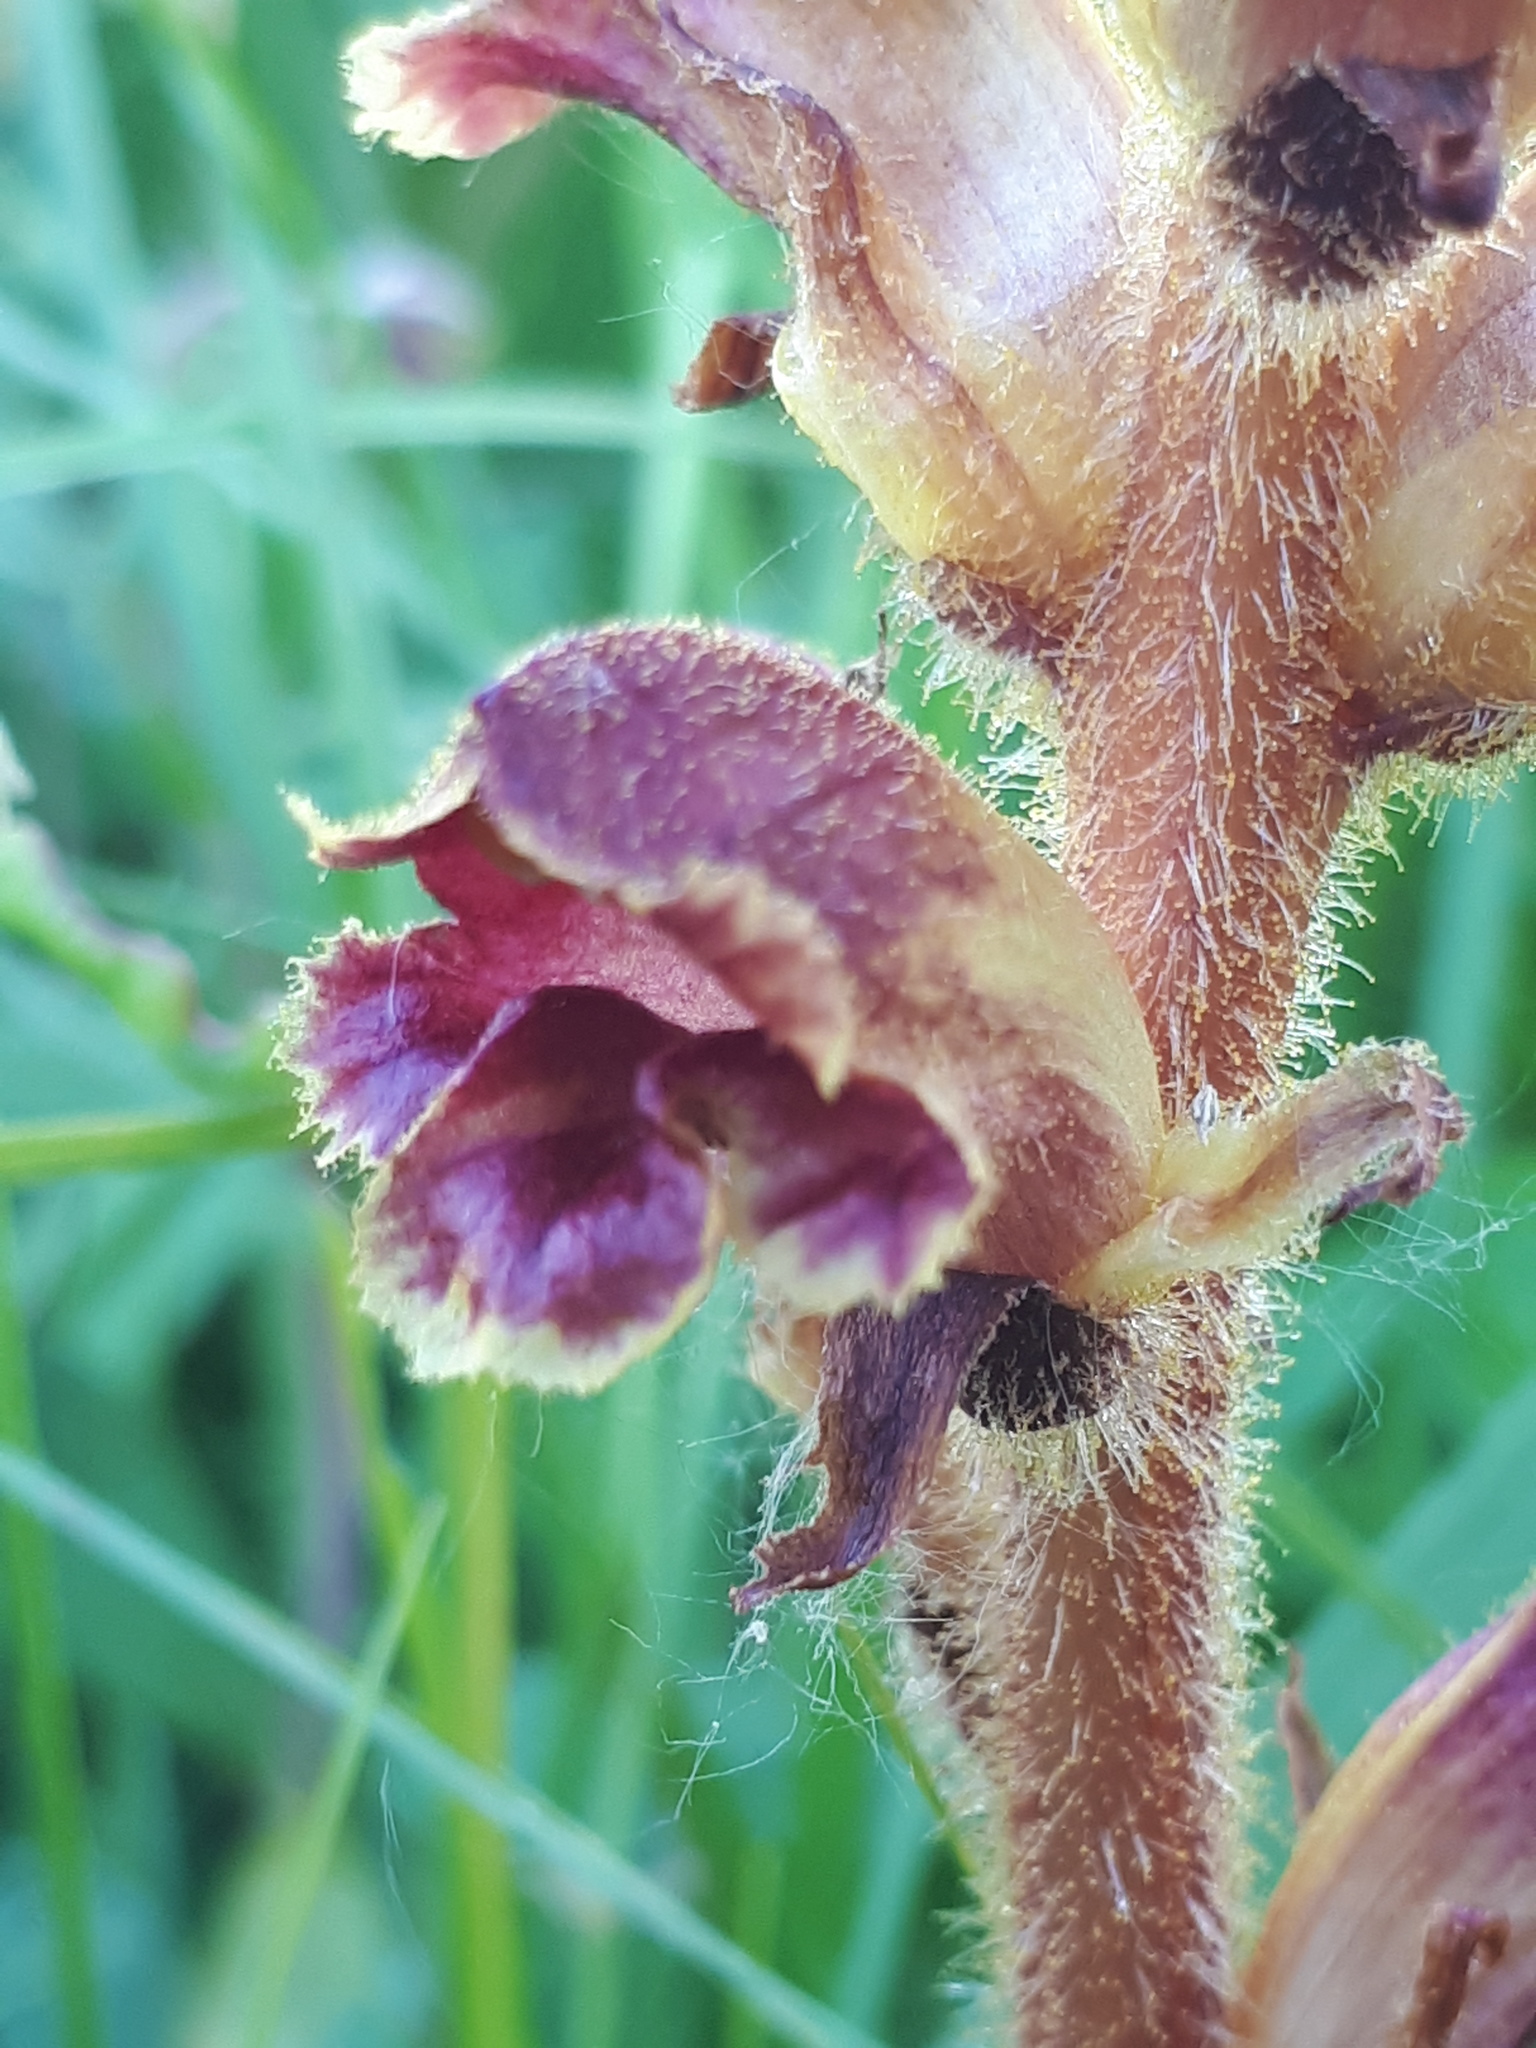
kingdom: Plantae
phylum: Tracheophyta
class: Magnoliopsida
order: Lamiales
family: Orobanchaceae
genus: Orobanche
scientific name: Orobanche gracilis
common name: Slender broomrape
